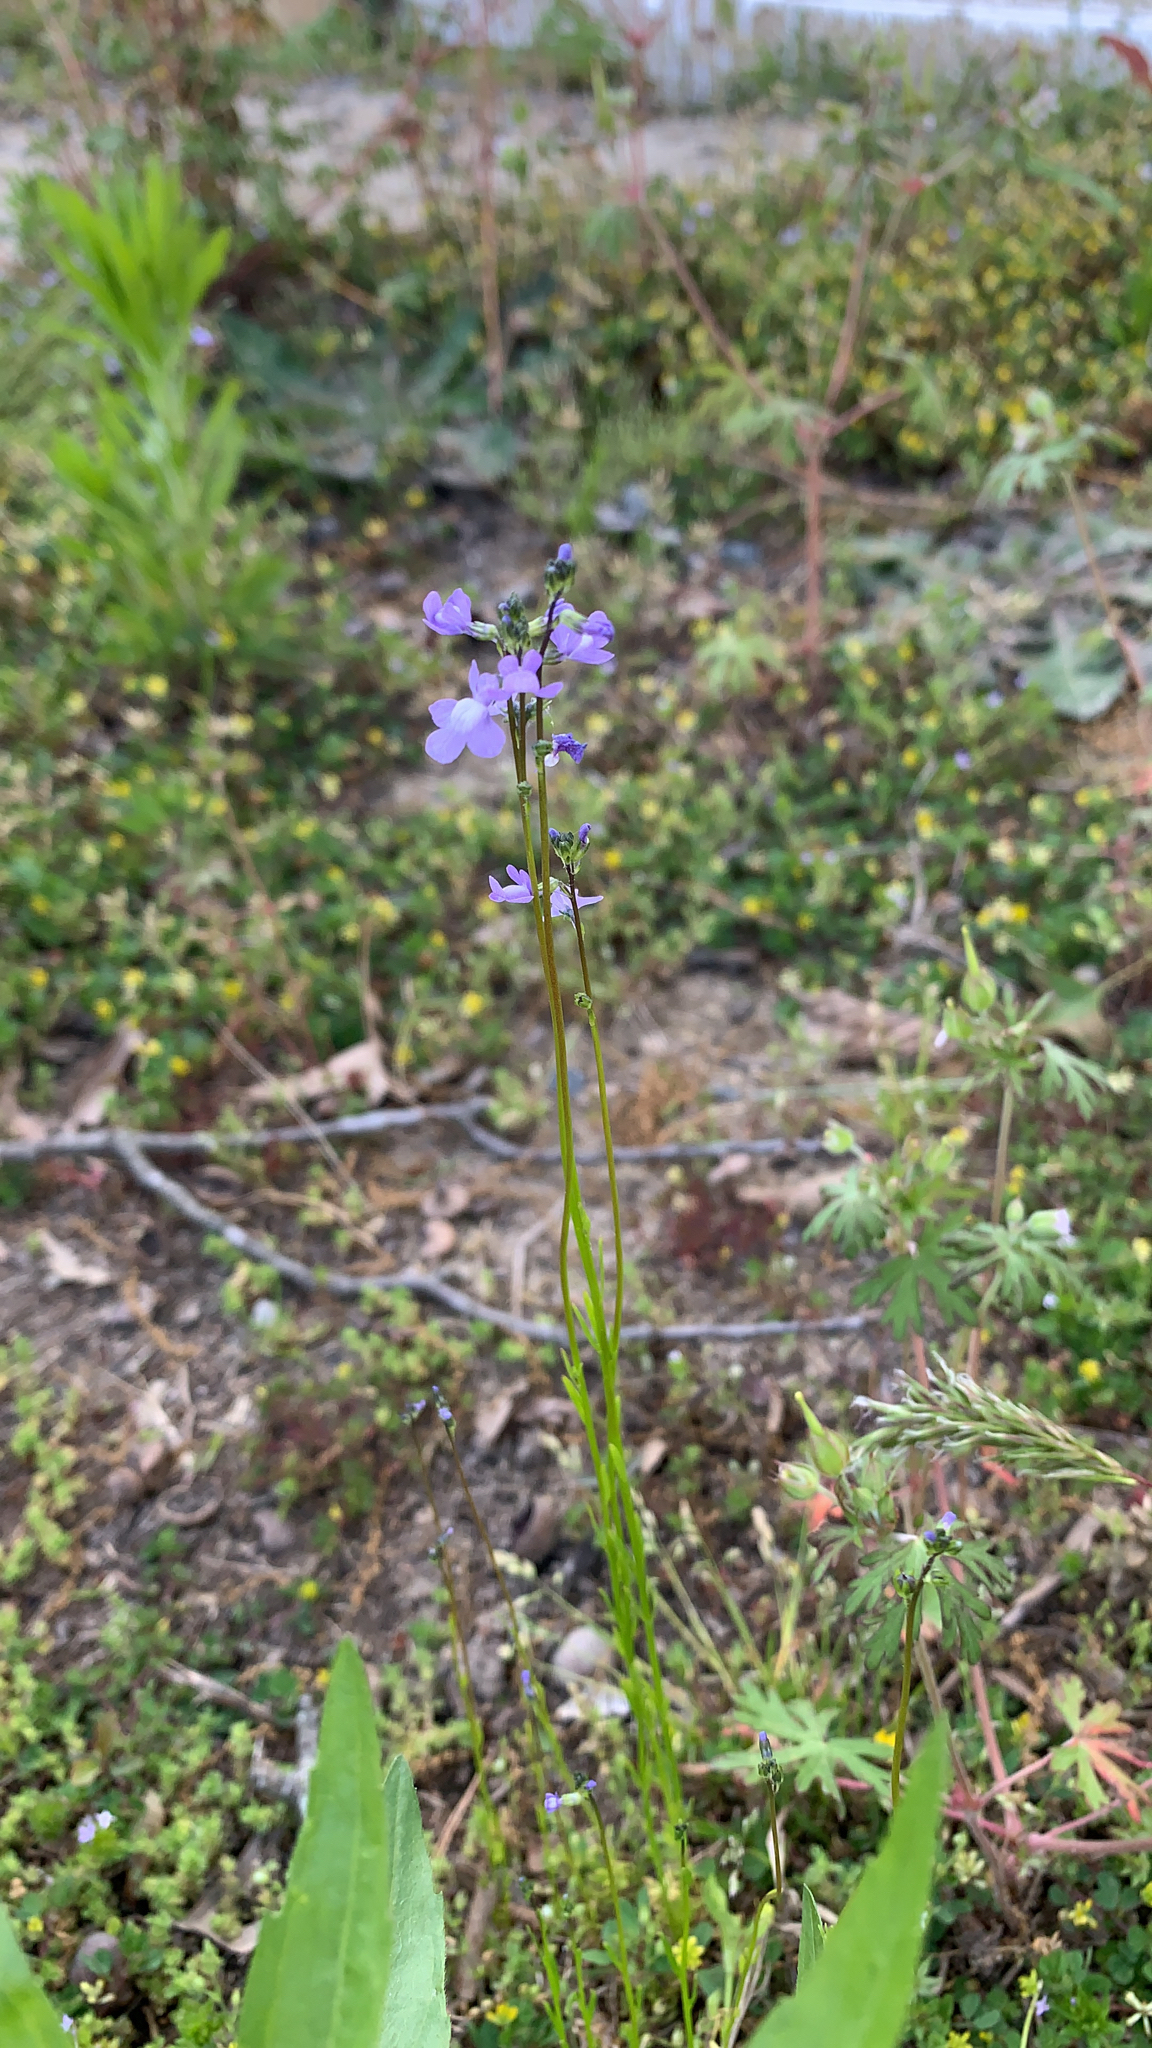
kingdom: Plantae
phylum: Tracheophyta
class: Magnoliopsida
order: Lamiales
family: Plantaginaceae
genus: Nuttallanthus
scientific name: Nuttallanthus canadensis
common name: Blue toadflax
